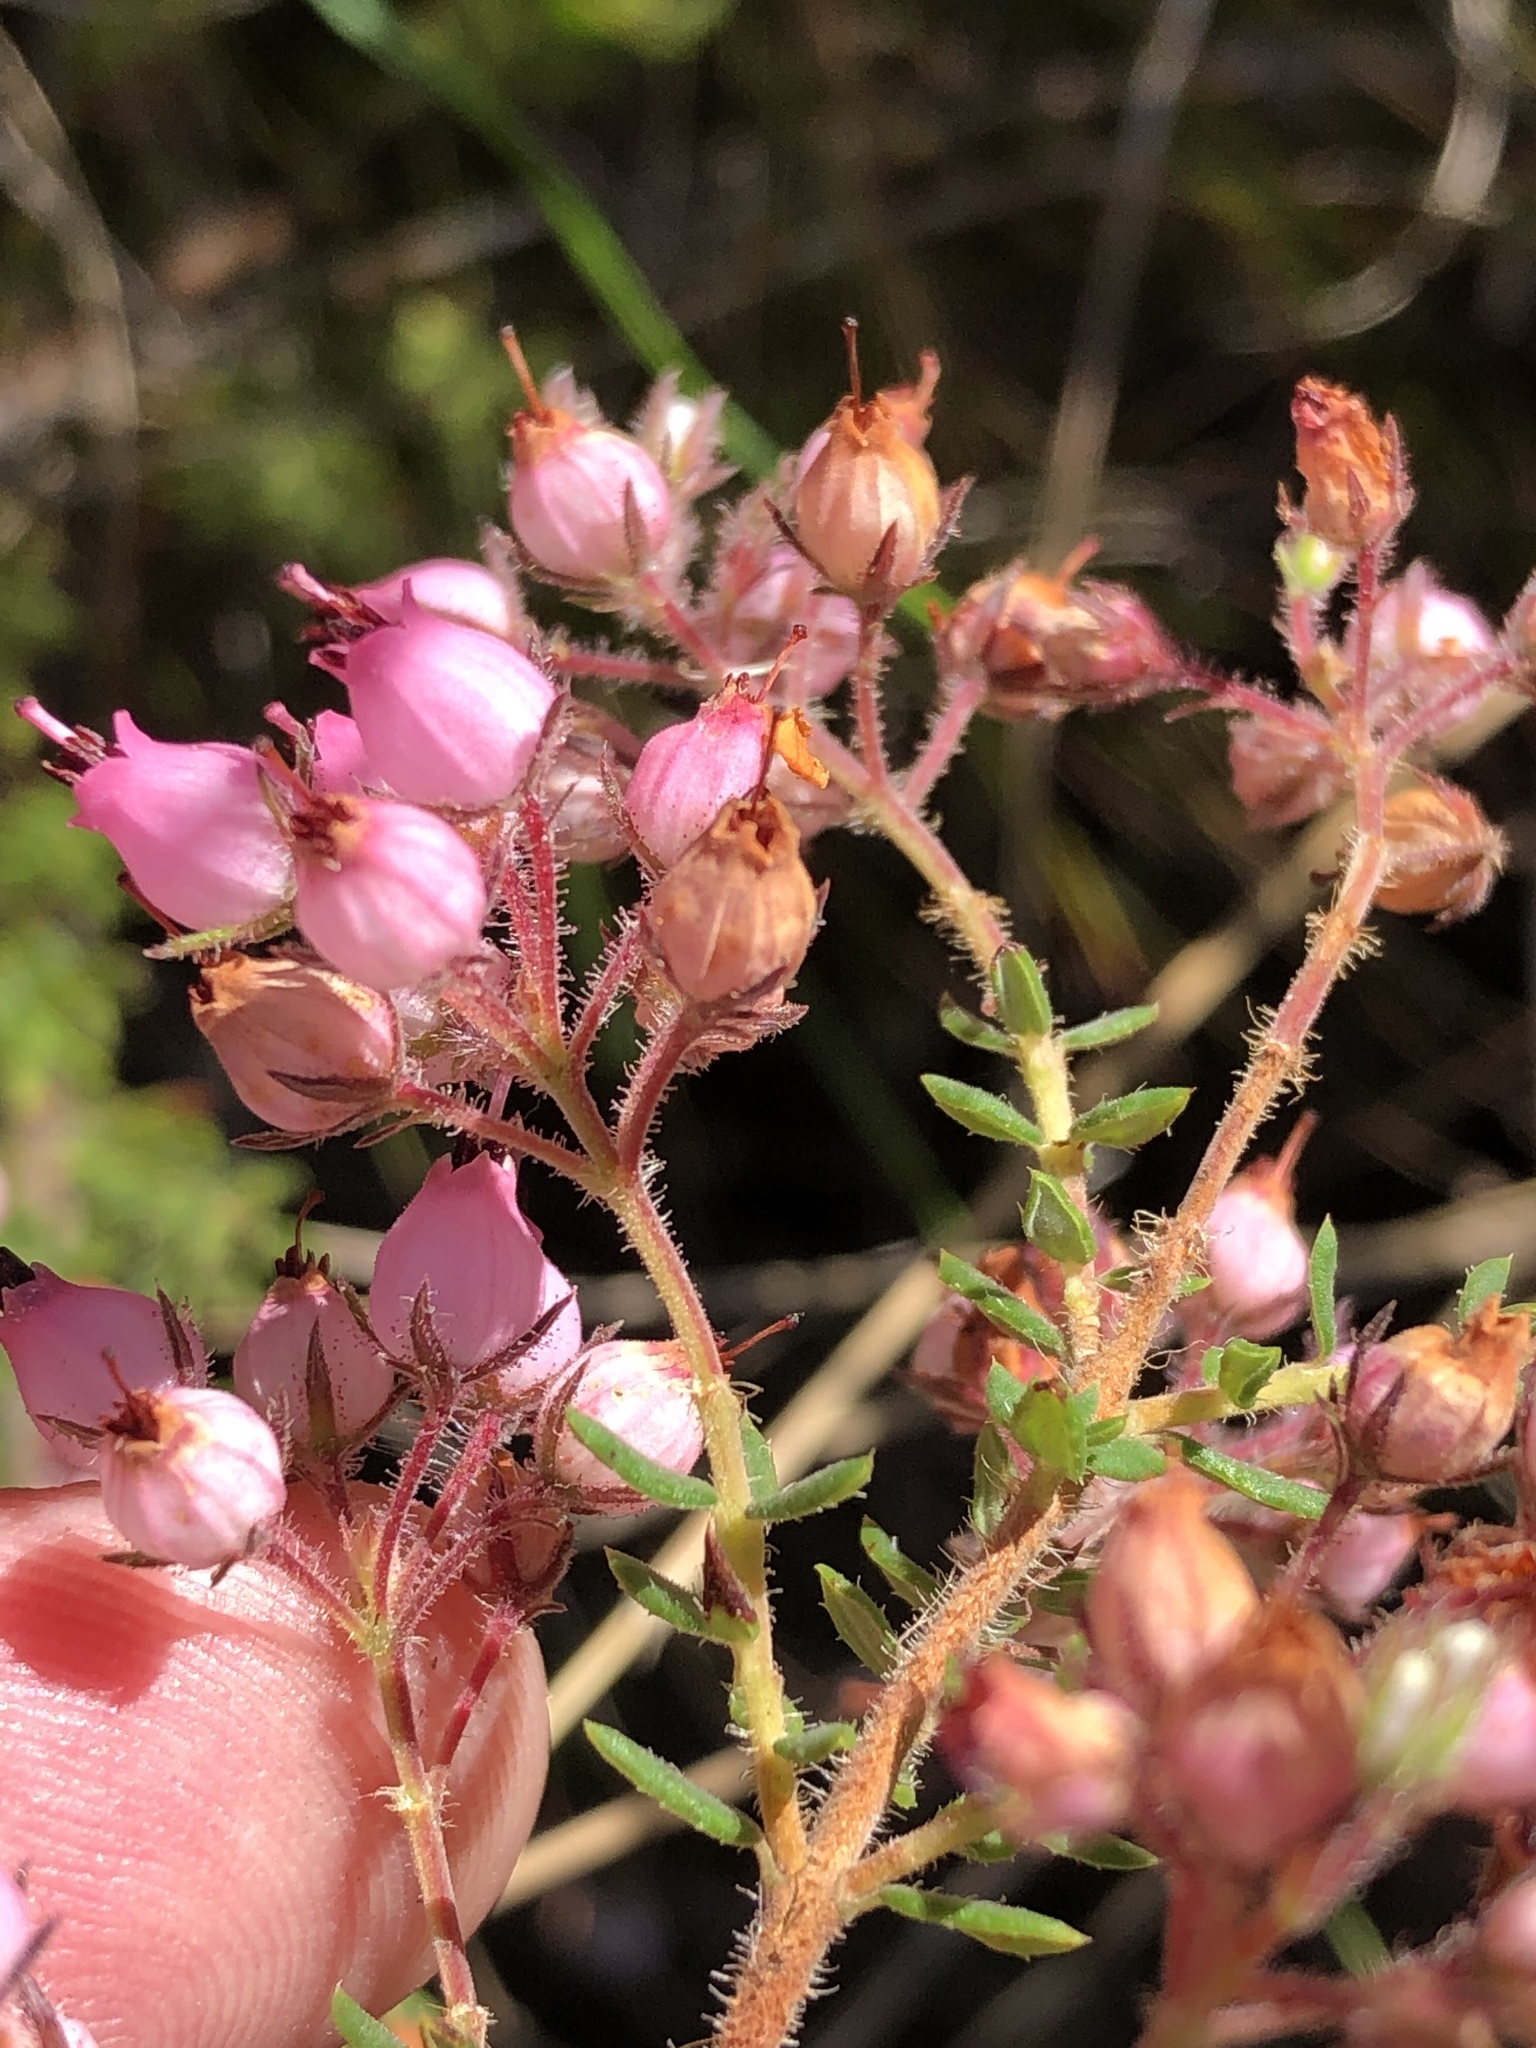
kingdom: Plantae
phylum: Tracheophyta
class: Magnoliopsida
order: Ericales
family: Ericaceae
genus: Erica
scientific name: Erica hirta
